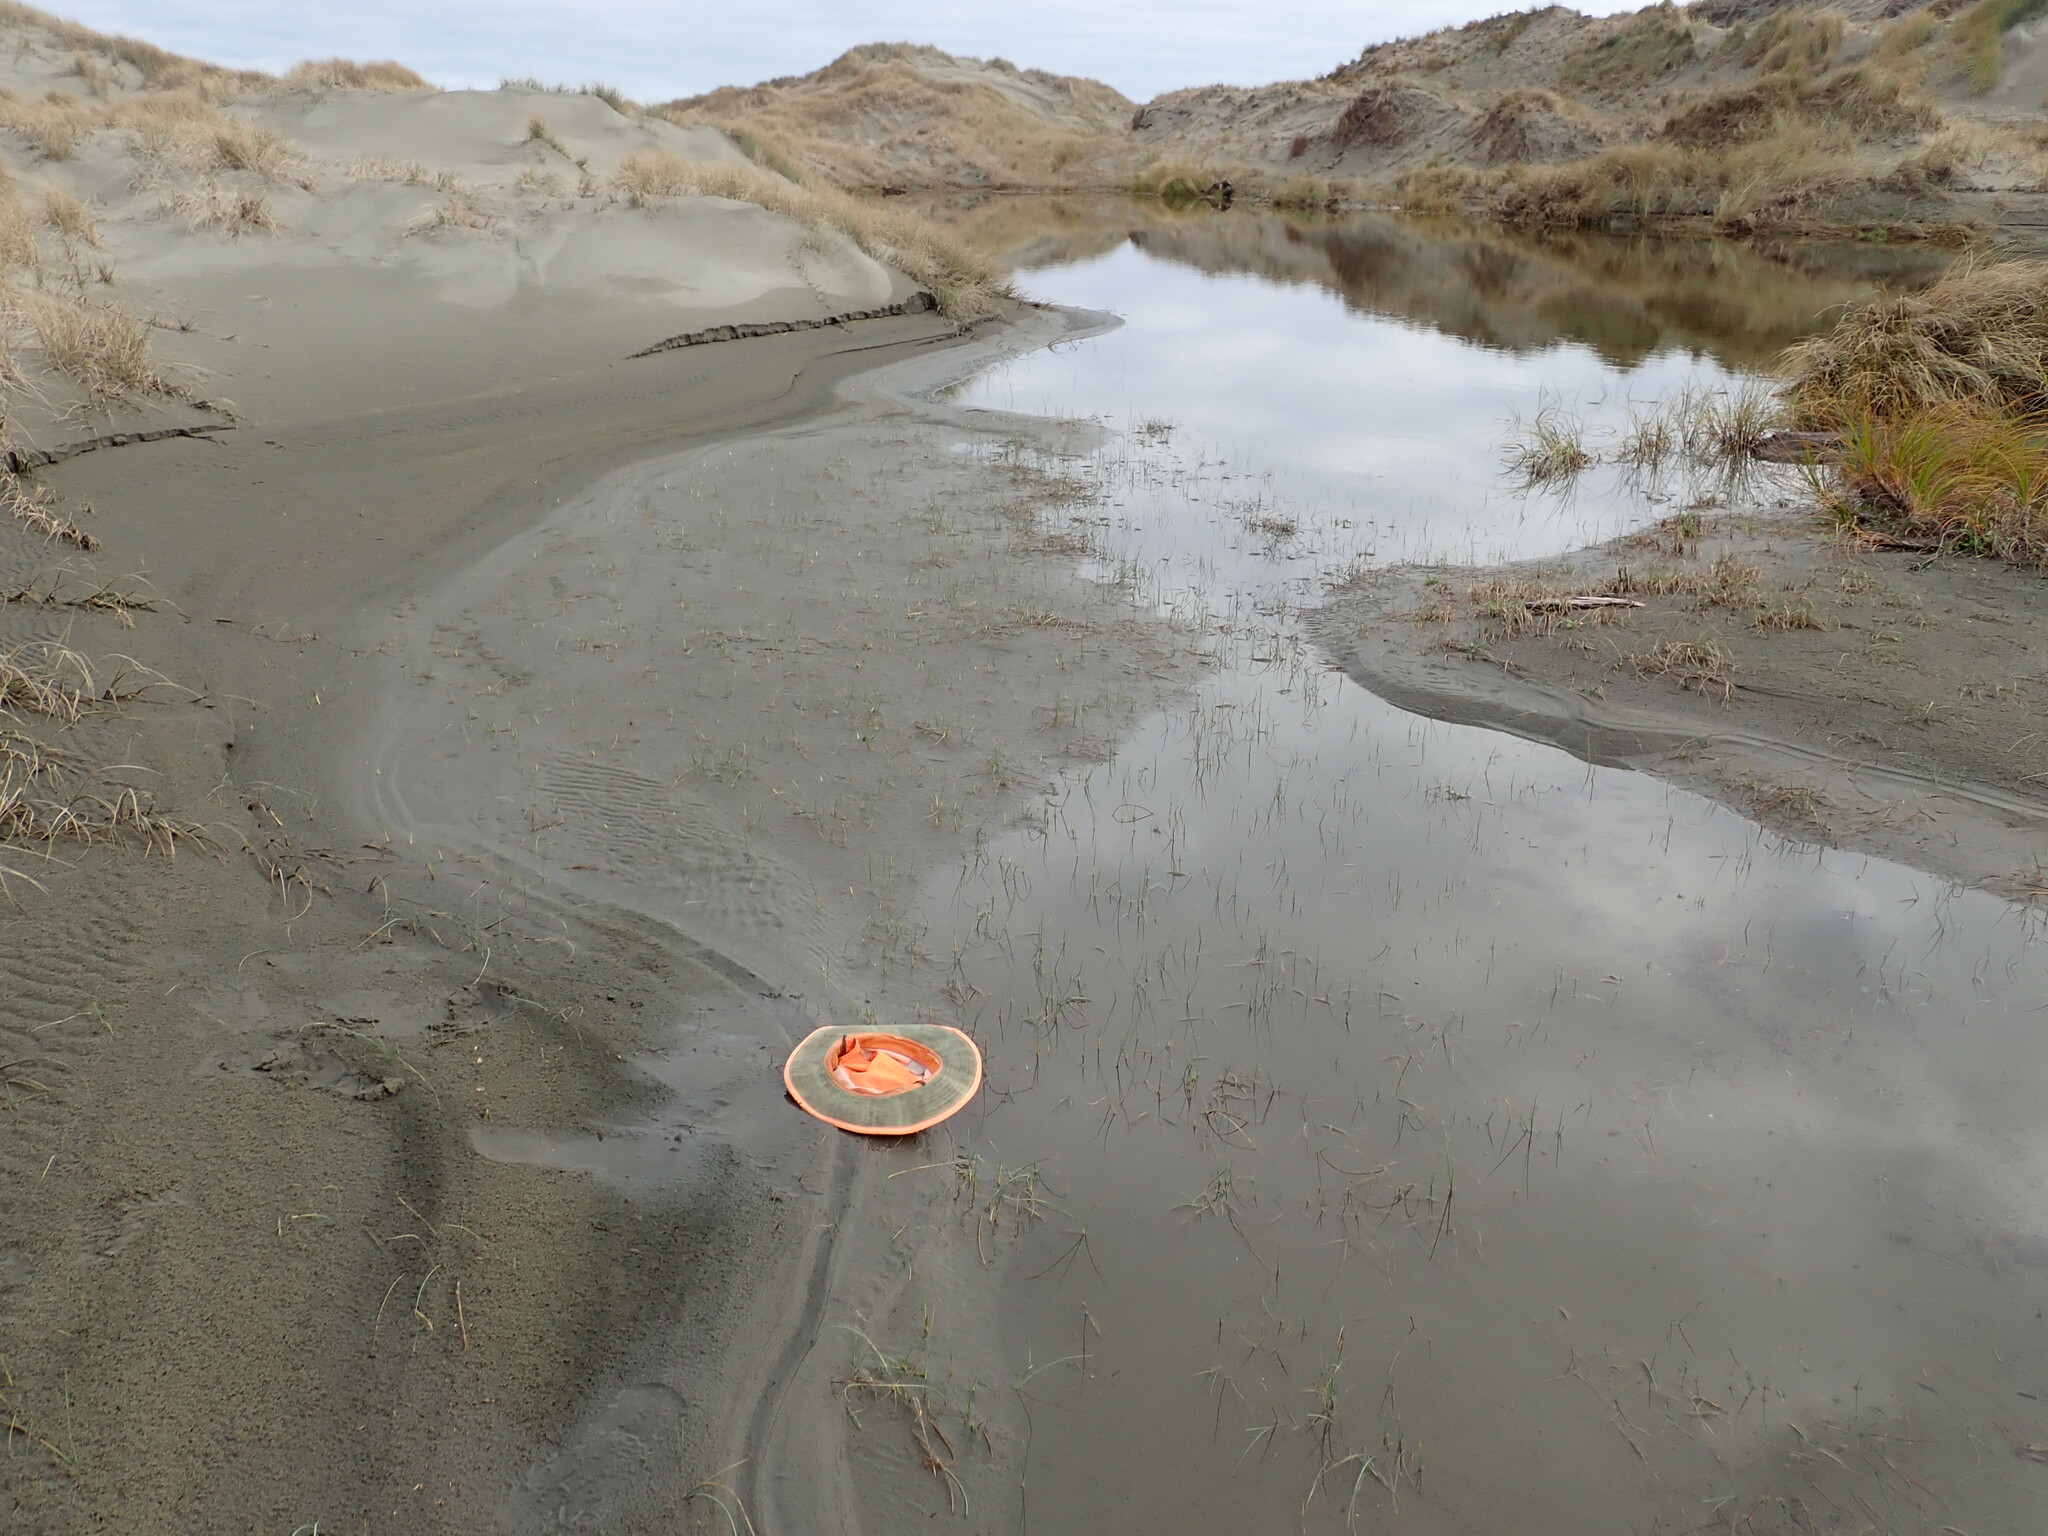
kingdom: Plantae
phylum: Tracheophyta
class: Liliopsida
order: Poales
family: Cyperaceae
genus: Carex
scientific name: Carex pumila
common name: Dwarf sedge
